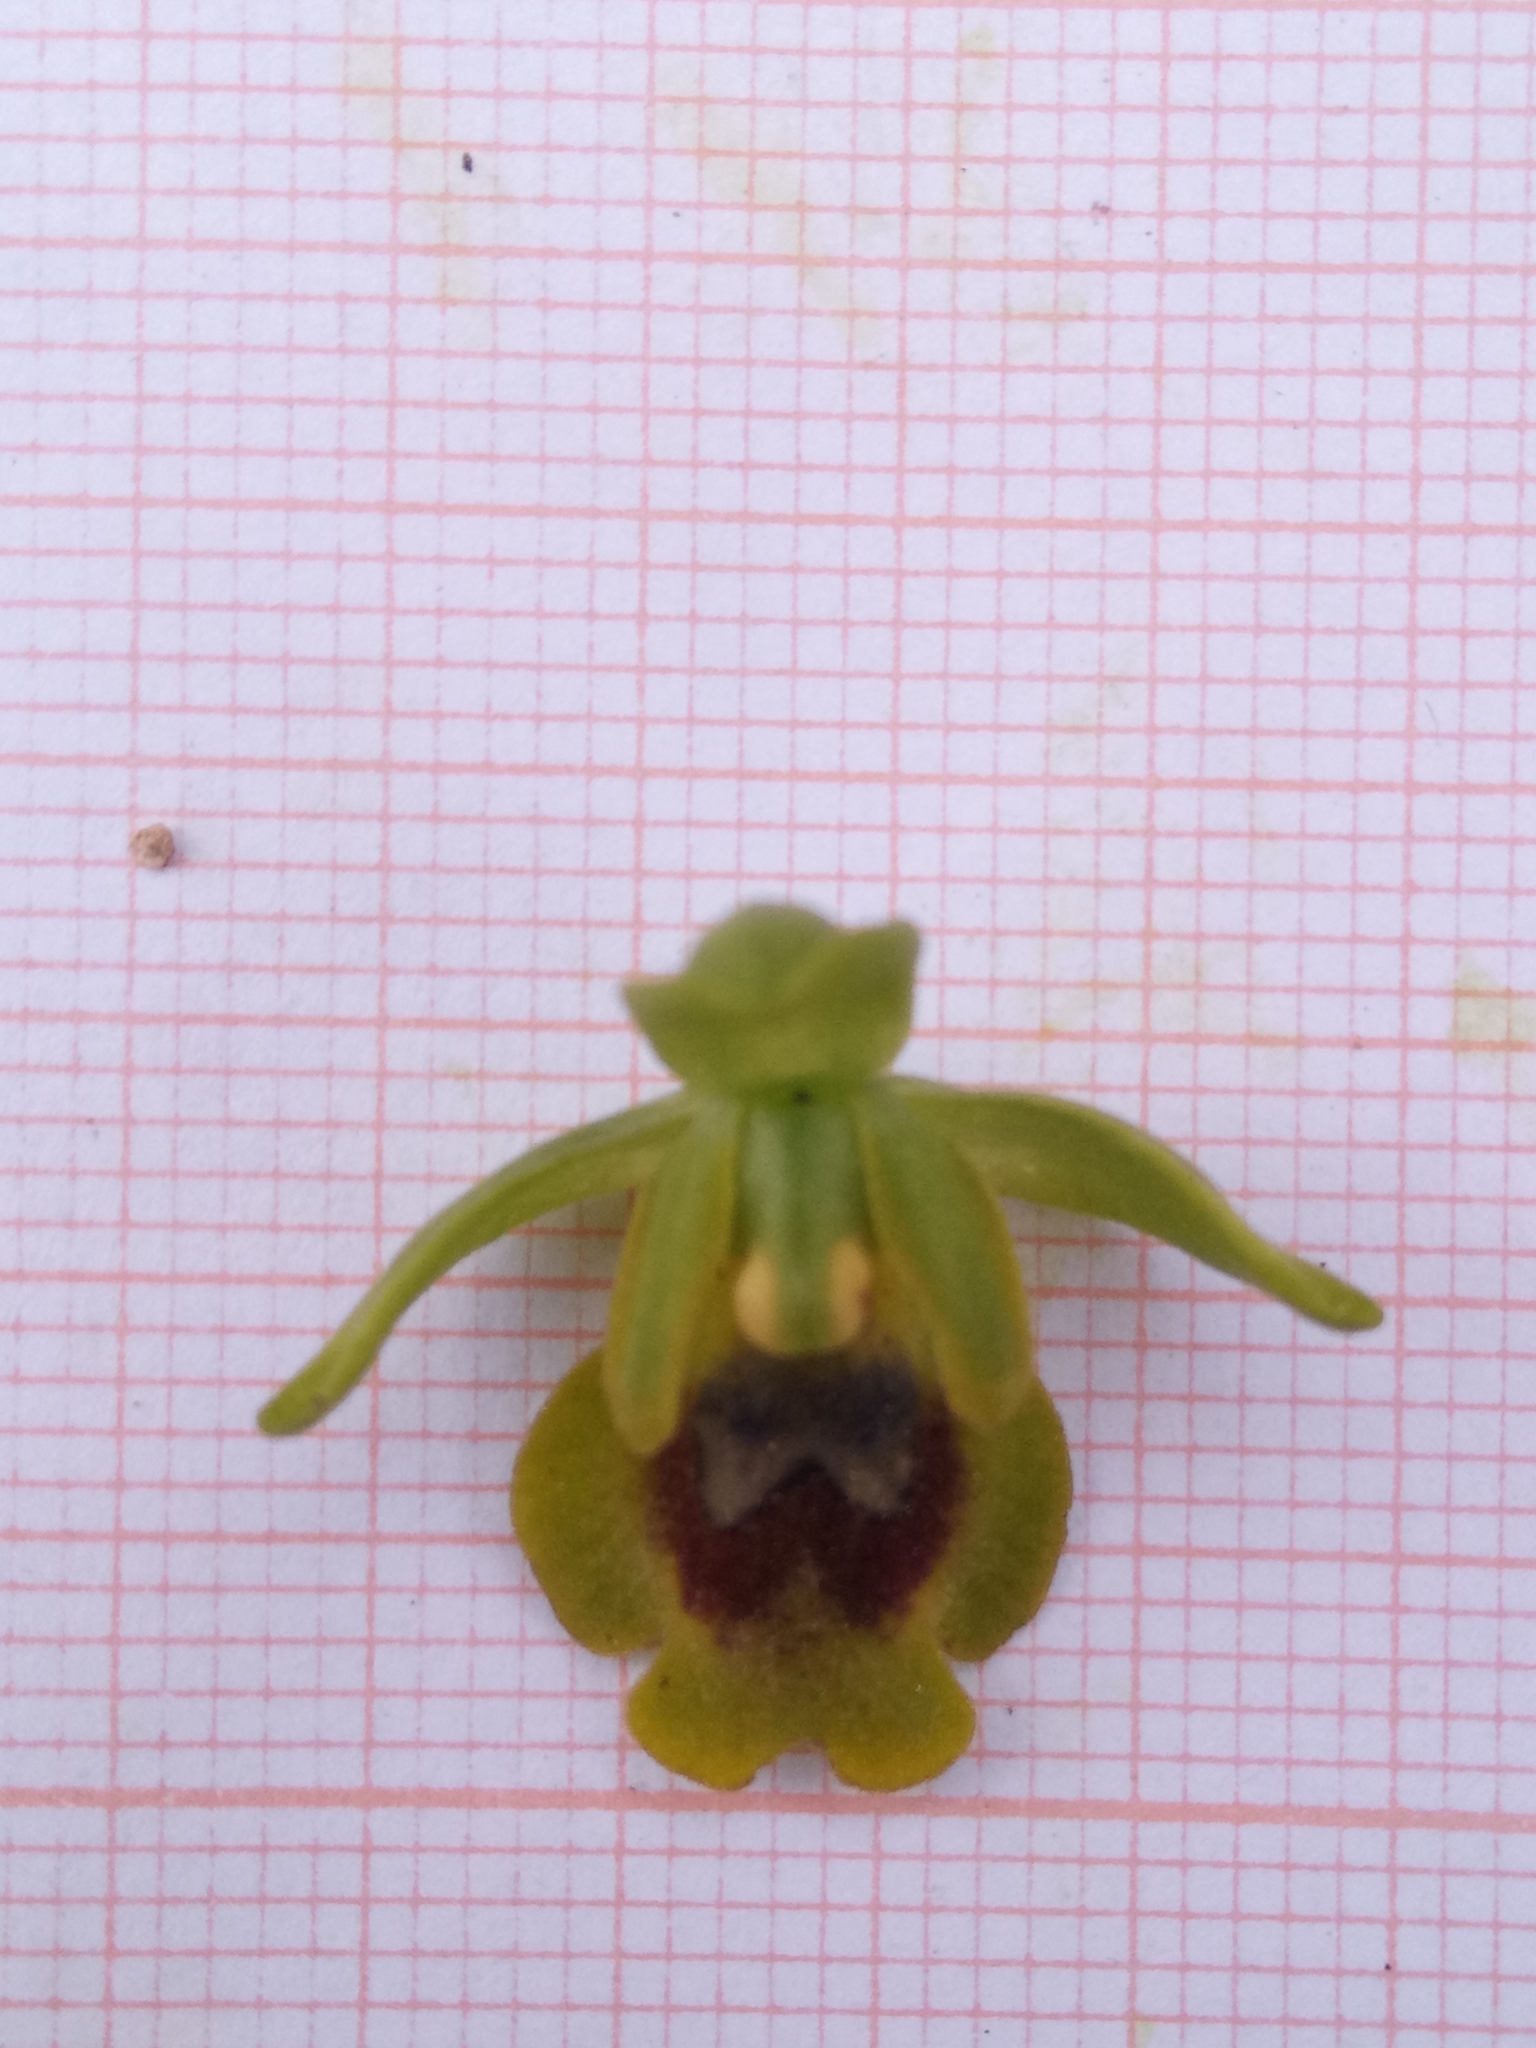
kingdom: Plantae
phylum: Tracheophyta
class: Liliopsida
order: Asparagales
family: Orchidaceae
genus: Ophrys
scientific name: Ophrys battandieri
